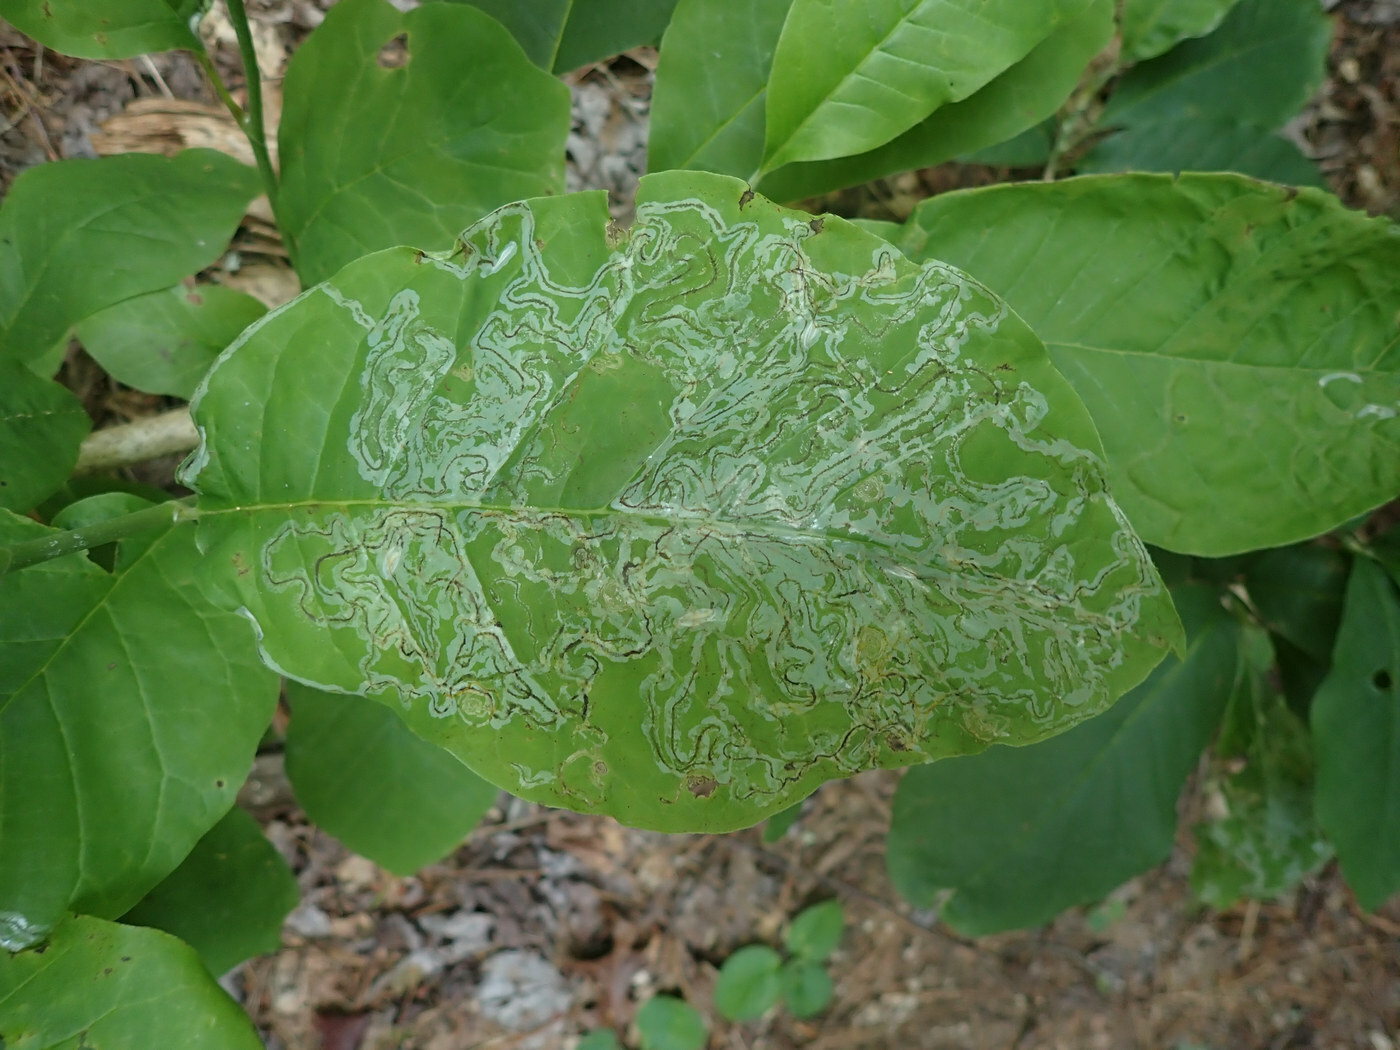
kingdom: Animalia
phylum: Arthropoda
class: Insecta
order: Lepidoptera
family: Gracillariidae
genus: Phyllocnistis
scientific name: Phyllocnistis liriodendronella
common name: Tulip tree leaf miner
